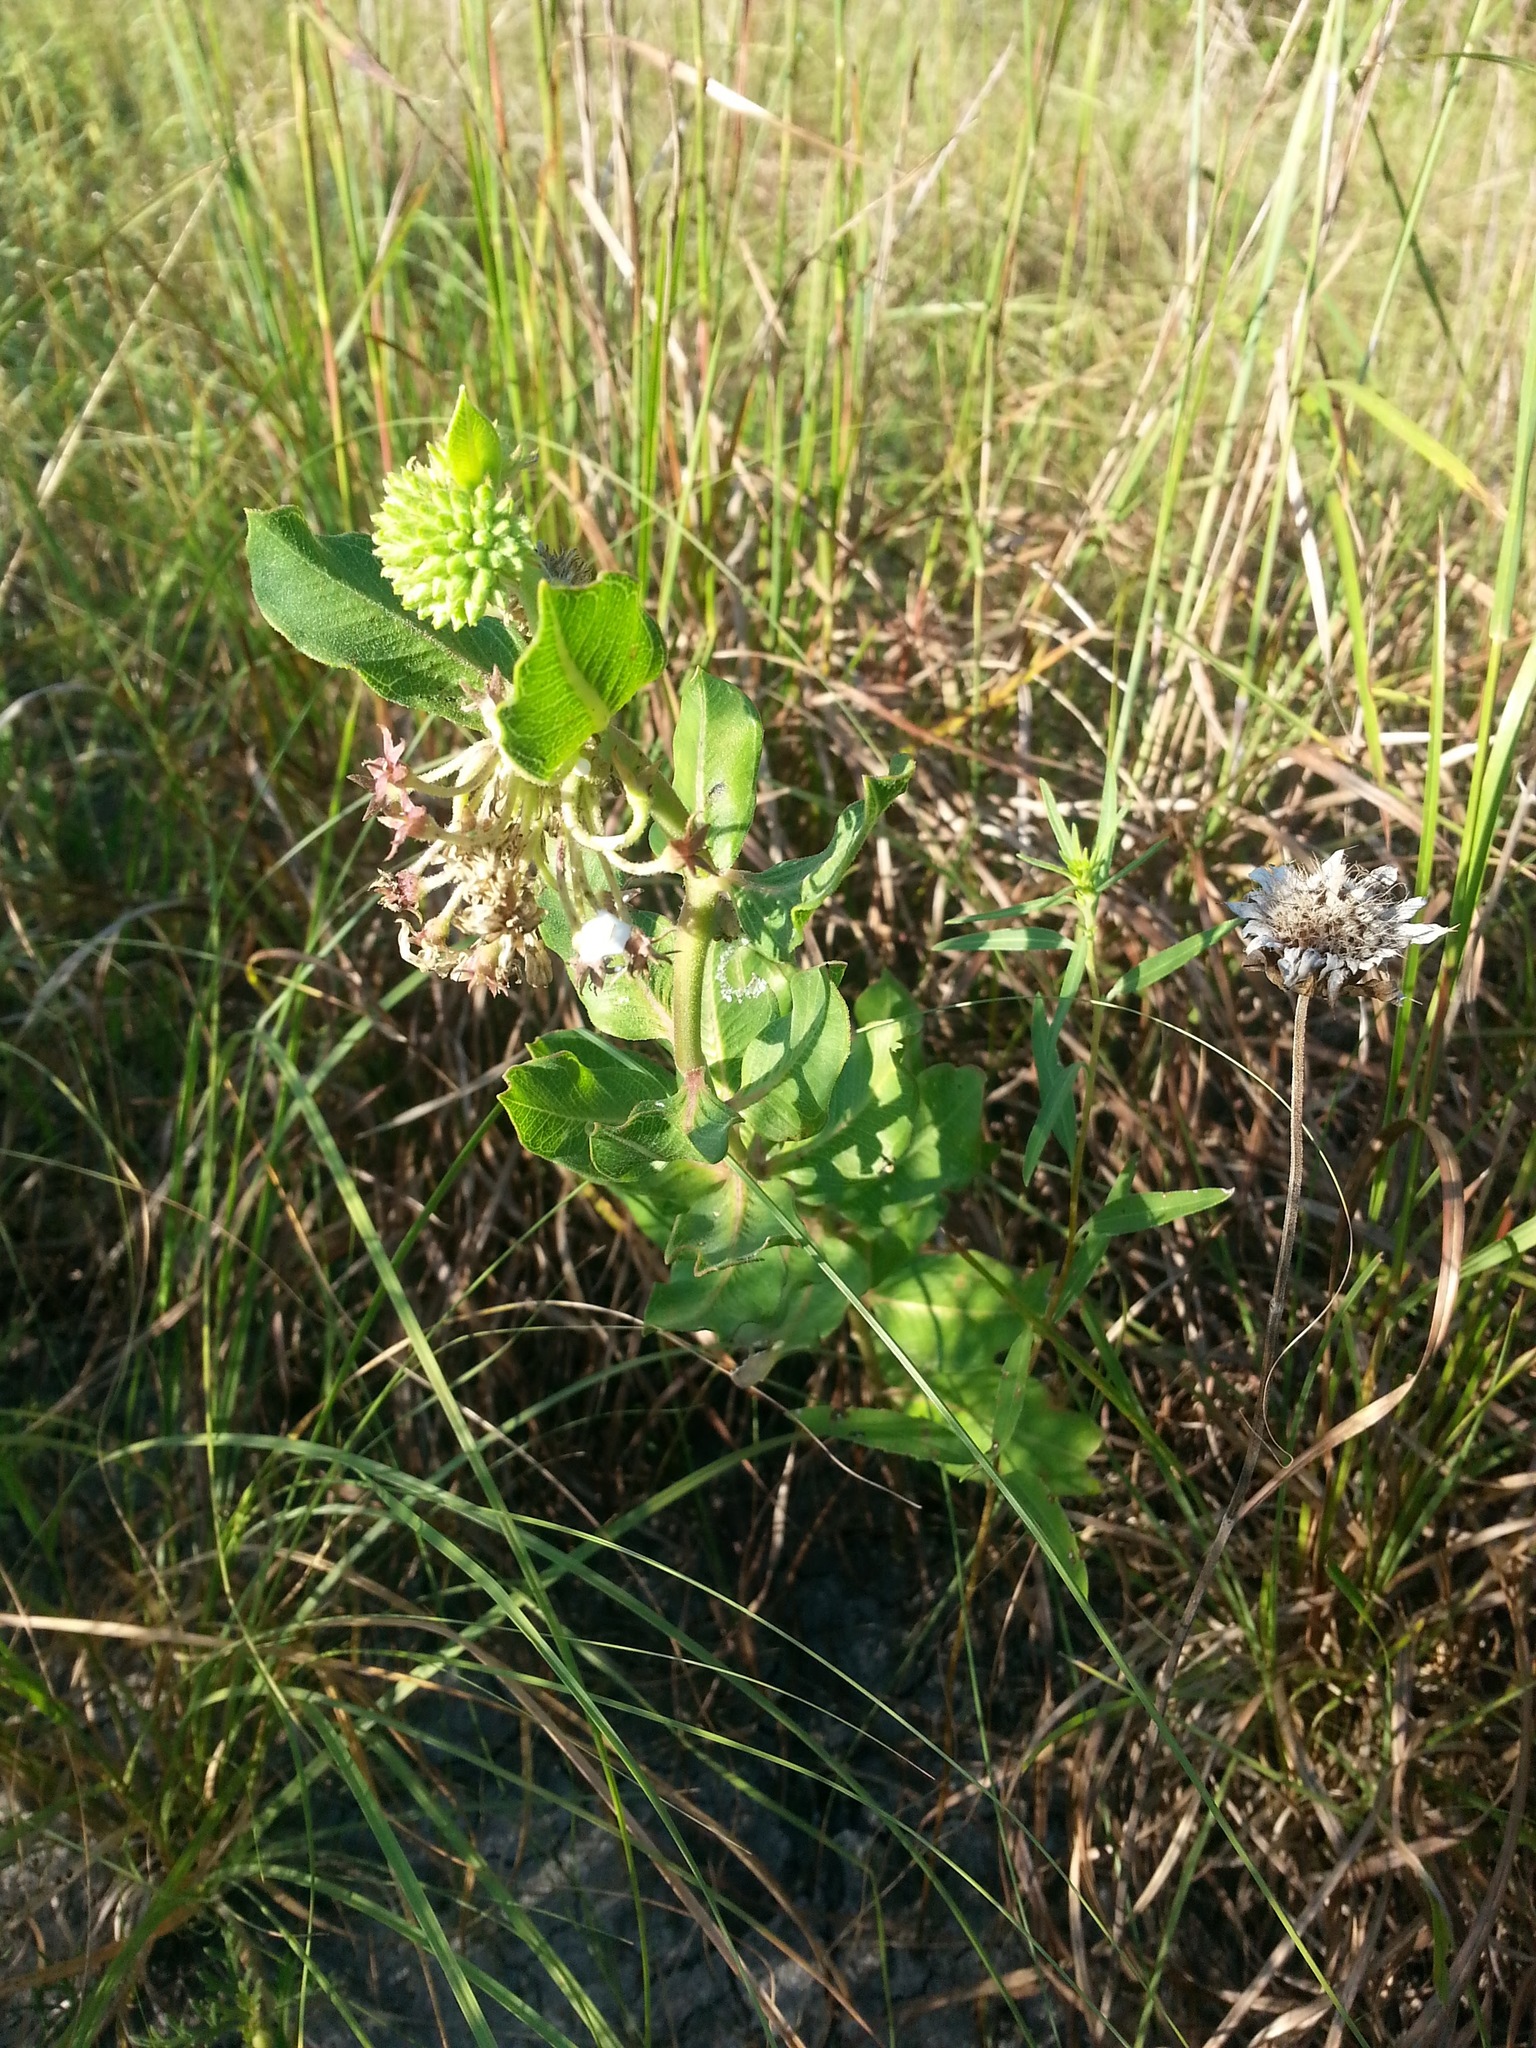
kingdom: Plantae
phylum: Tracheophyta
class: Magnoliopsida
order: Gentianales
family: Apocynaceae
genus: Asclepias
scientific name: Asclepias viridiflora
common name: Green comet milkweed
